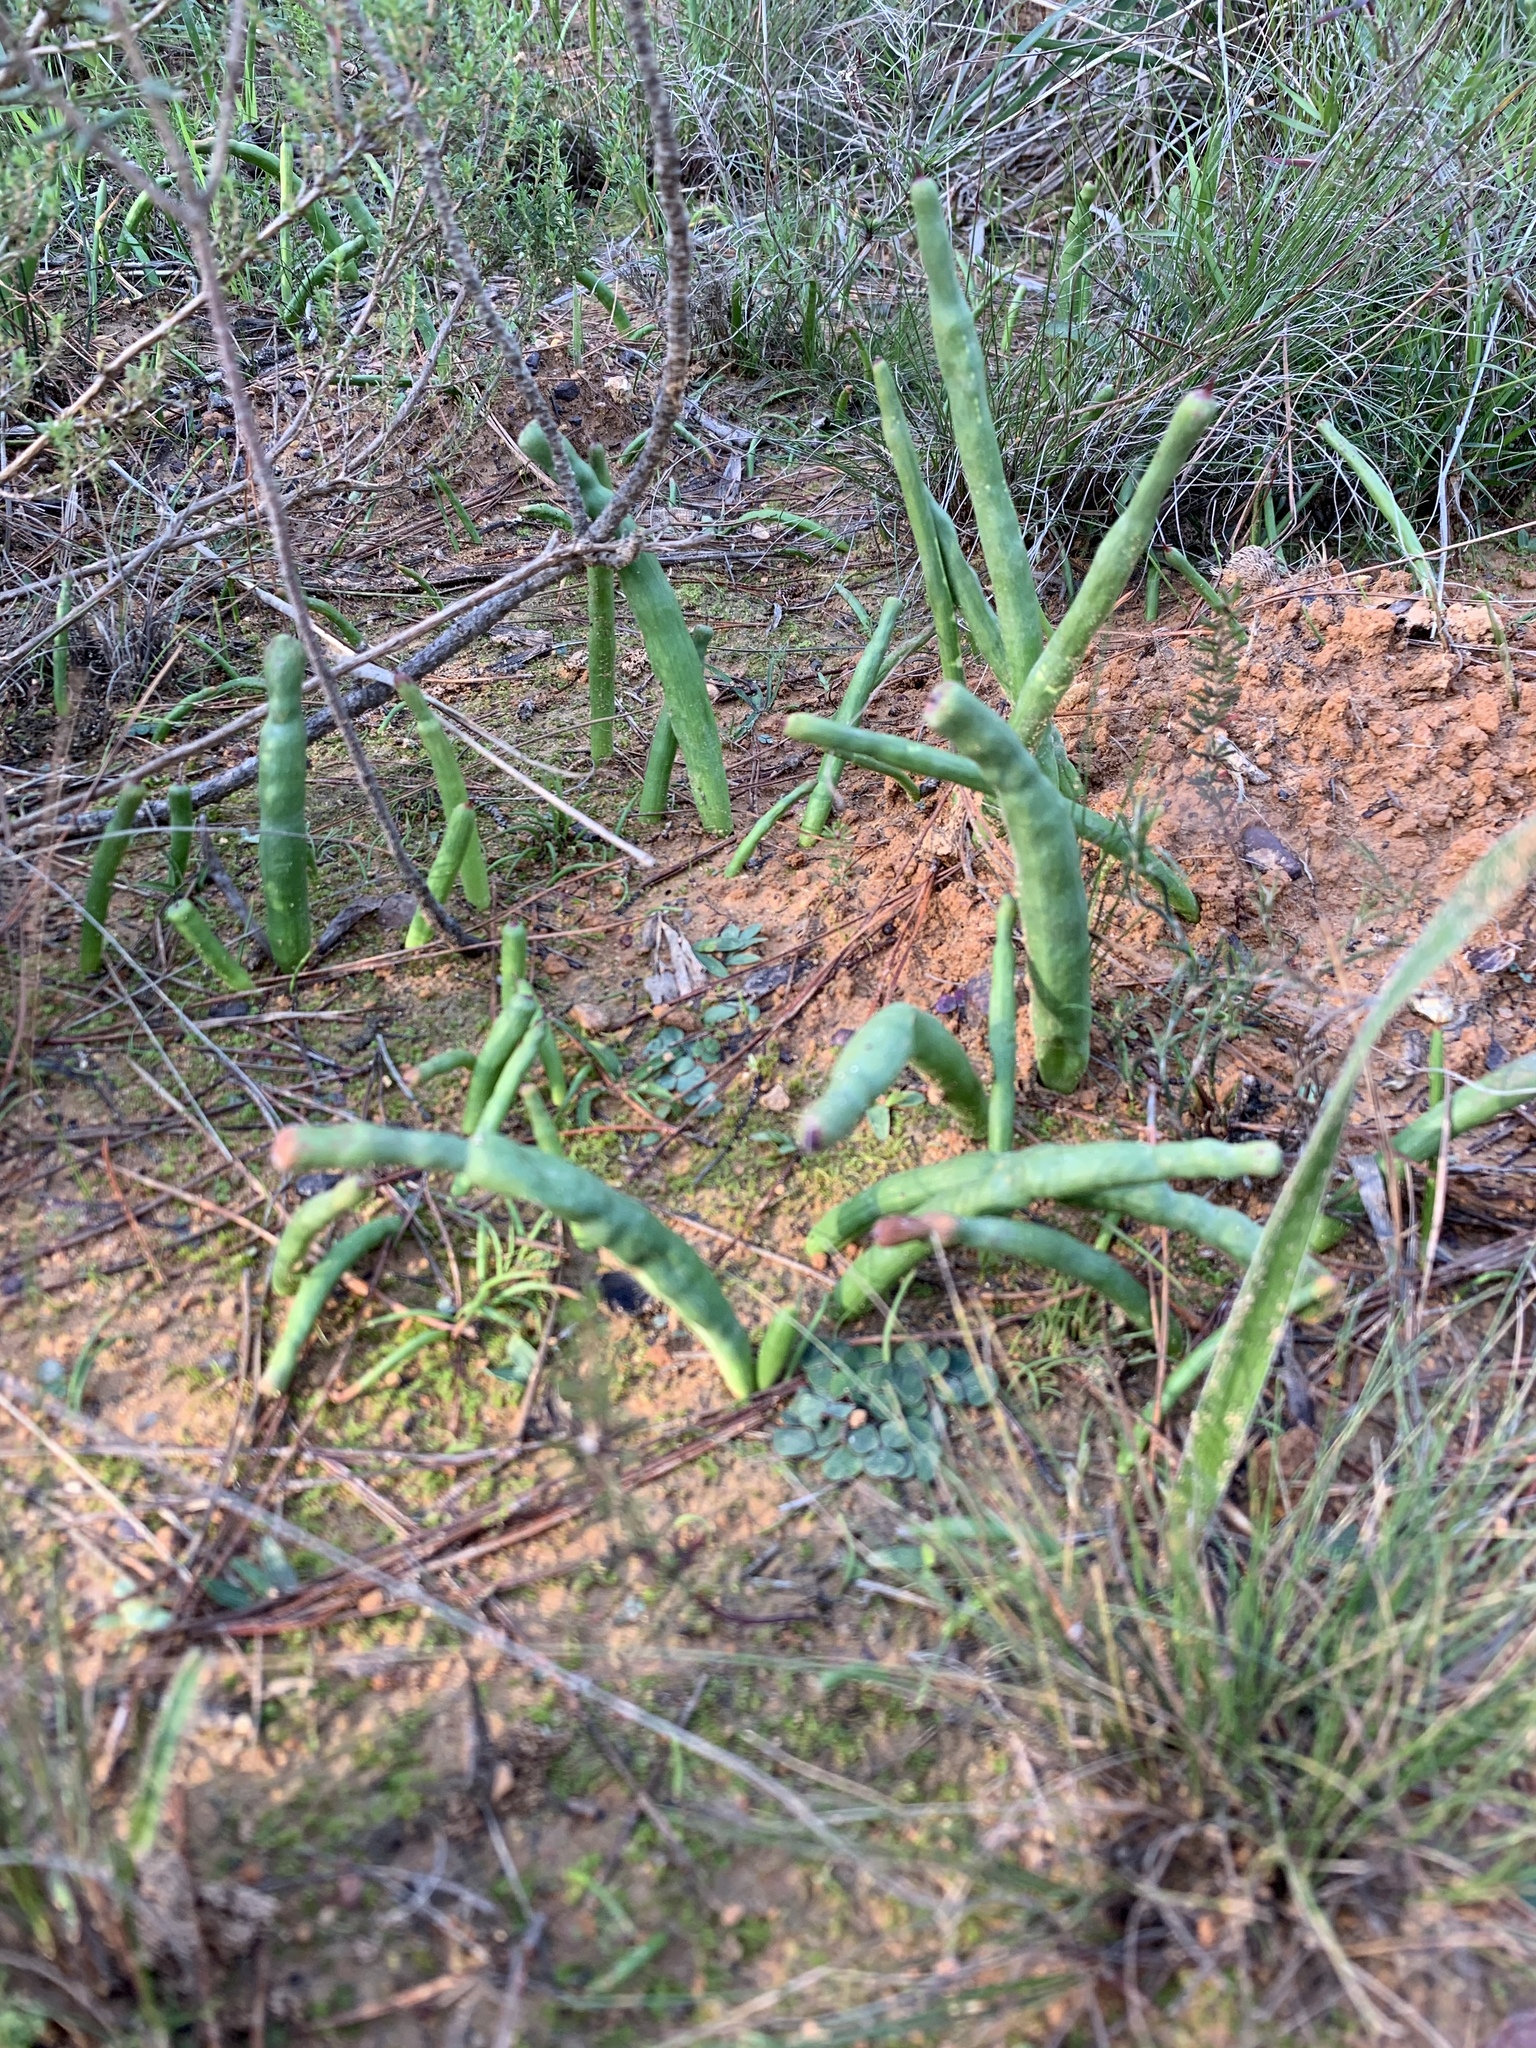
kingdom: Plantae
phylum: Tracheophyta
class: Liliopsida
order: Asparagales
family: Iridaceae
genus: Micranthus
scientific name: Micranthus tubulosus
